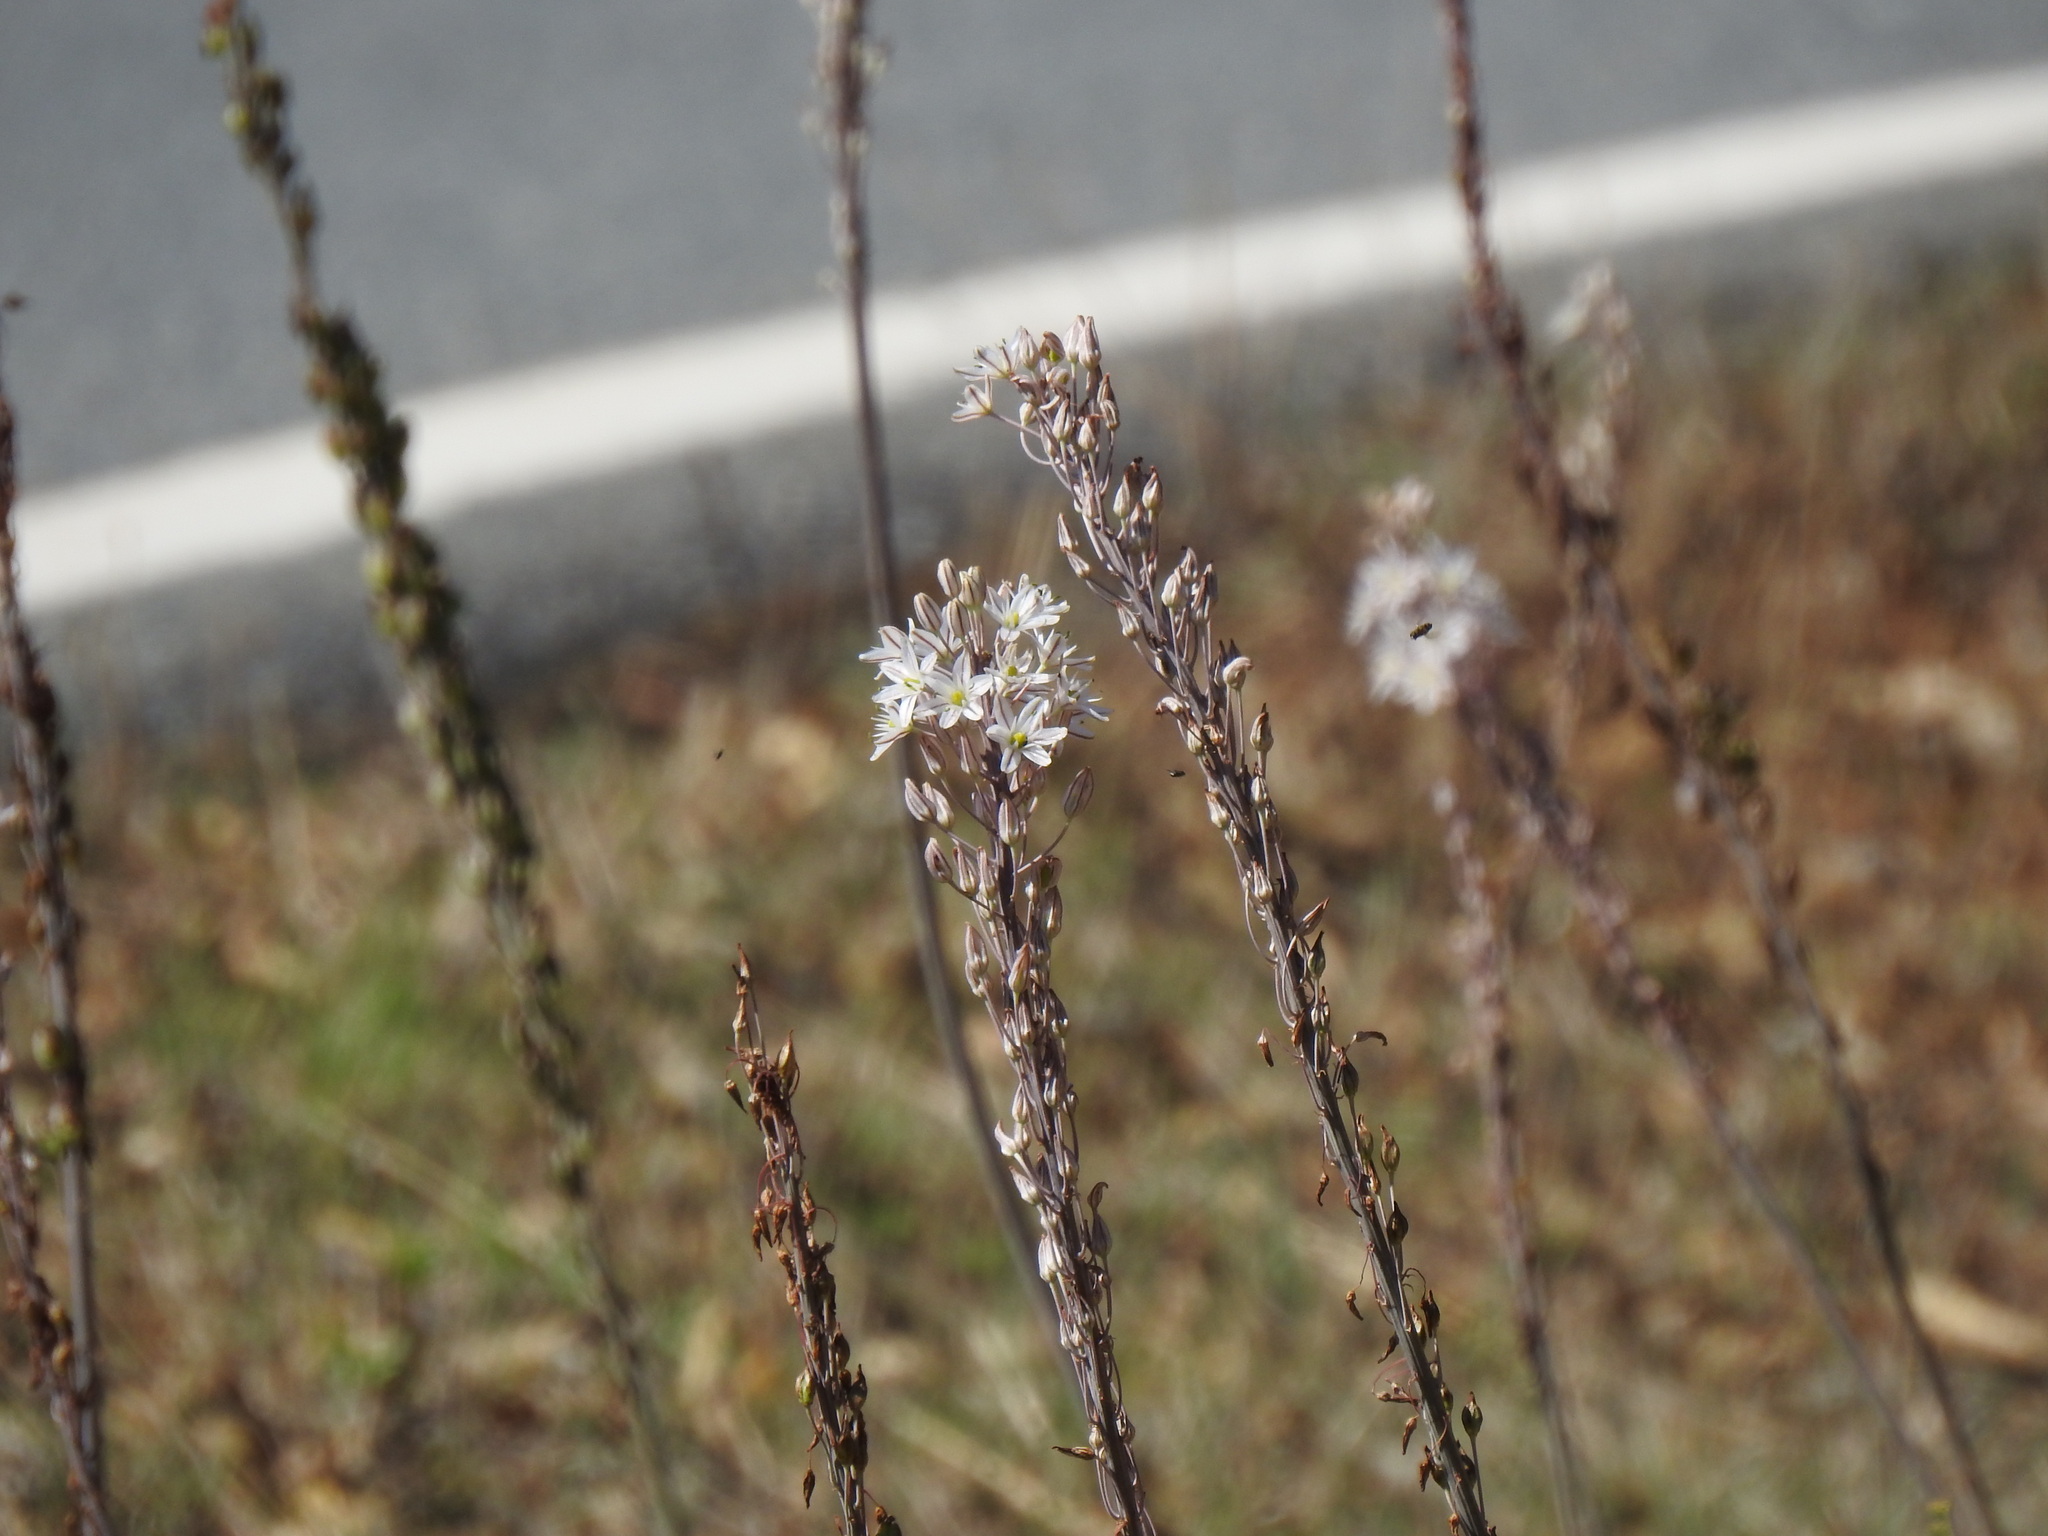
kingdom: Plantae
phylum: Tracheophyta
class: Liliopsida
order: Asparagales
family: Asparagaceae
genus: Drimia
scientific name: Drimia maritima
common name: Maritime squill
